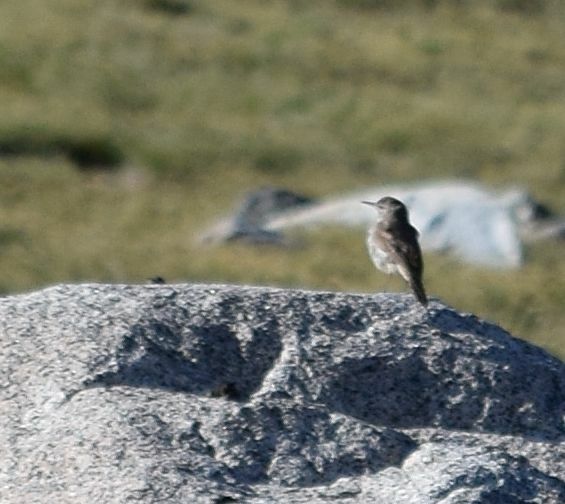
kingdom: Animalia
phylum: Chordata
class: Aves
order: Passeriformes
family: Troglodytidae
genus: Salpinctes
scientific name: Salpinctes obsoletus
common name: Rock wren
